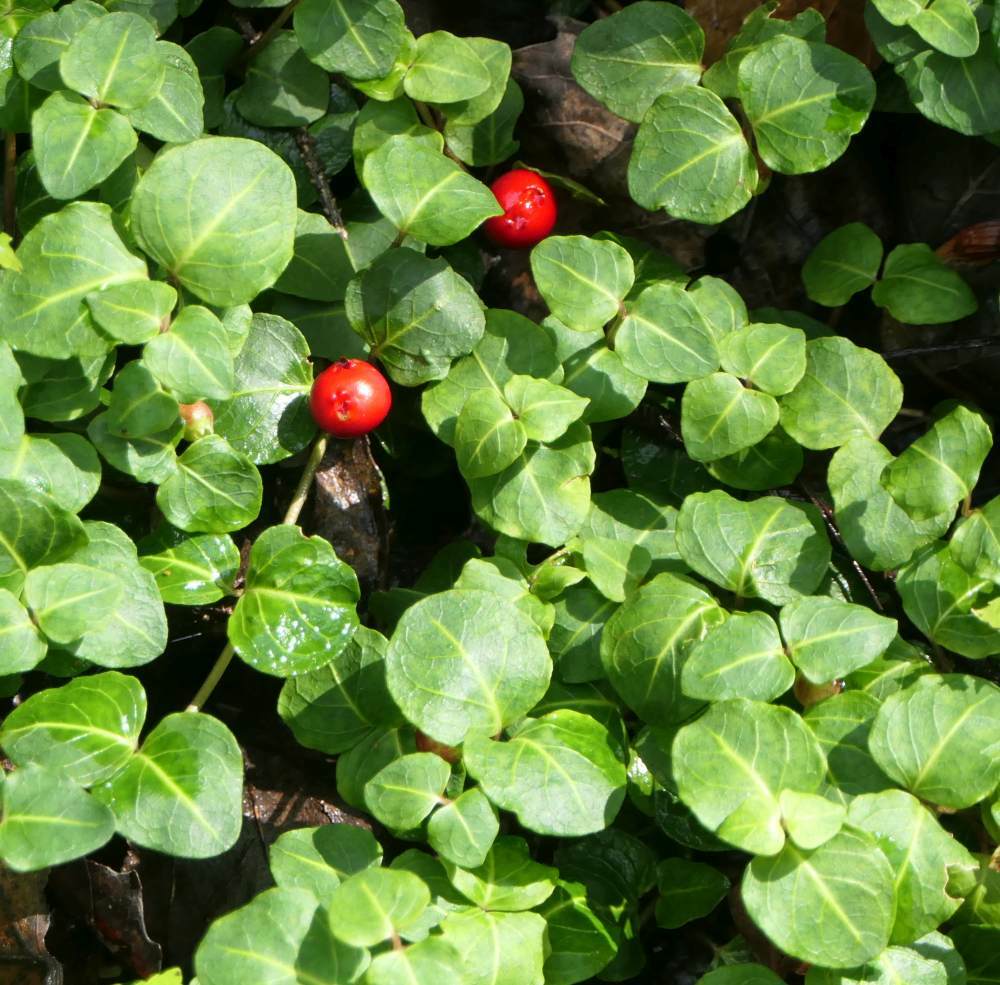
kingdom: Plantae
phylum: Tracheophyta
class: Magnoliopsida
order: Gentianales
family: Rubiaceae
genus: Mitchella
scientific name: Mitchella repens
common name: Partridge-berry
